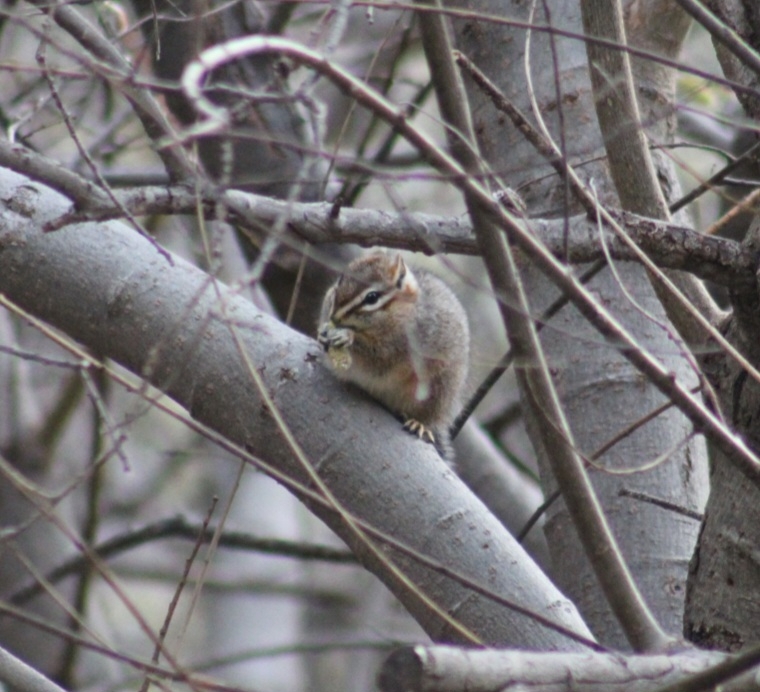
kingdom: Animalia
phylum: Chordata
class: Mammalia
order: Rodentia
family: Sciuridae
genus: Tamias
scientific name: Tamias dorsalis
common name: Cliff chipmunk
